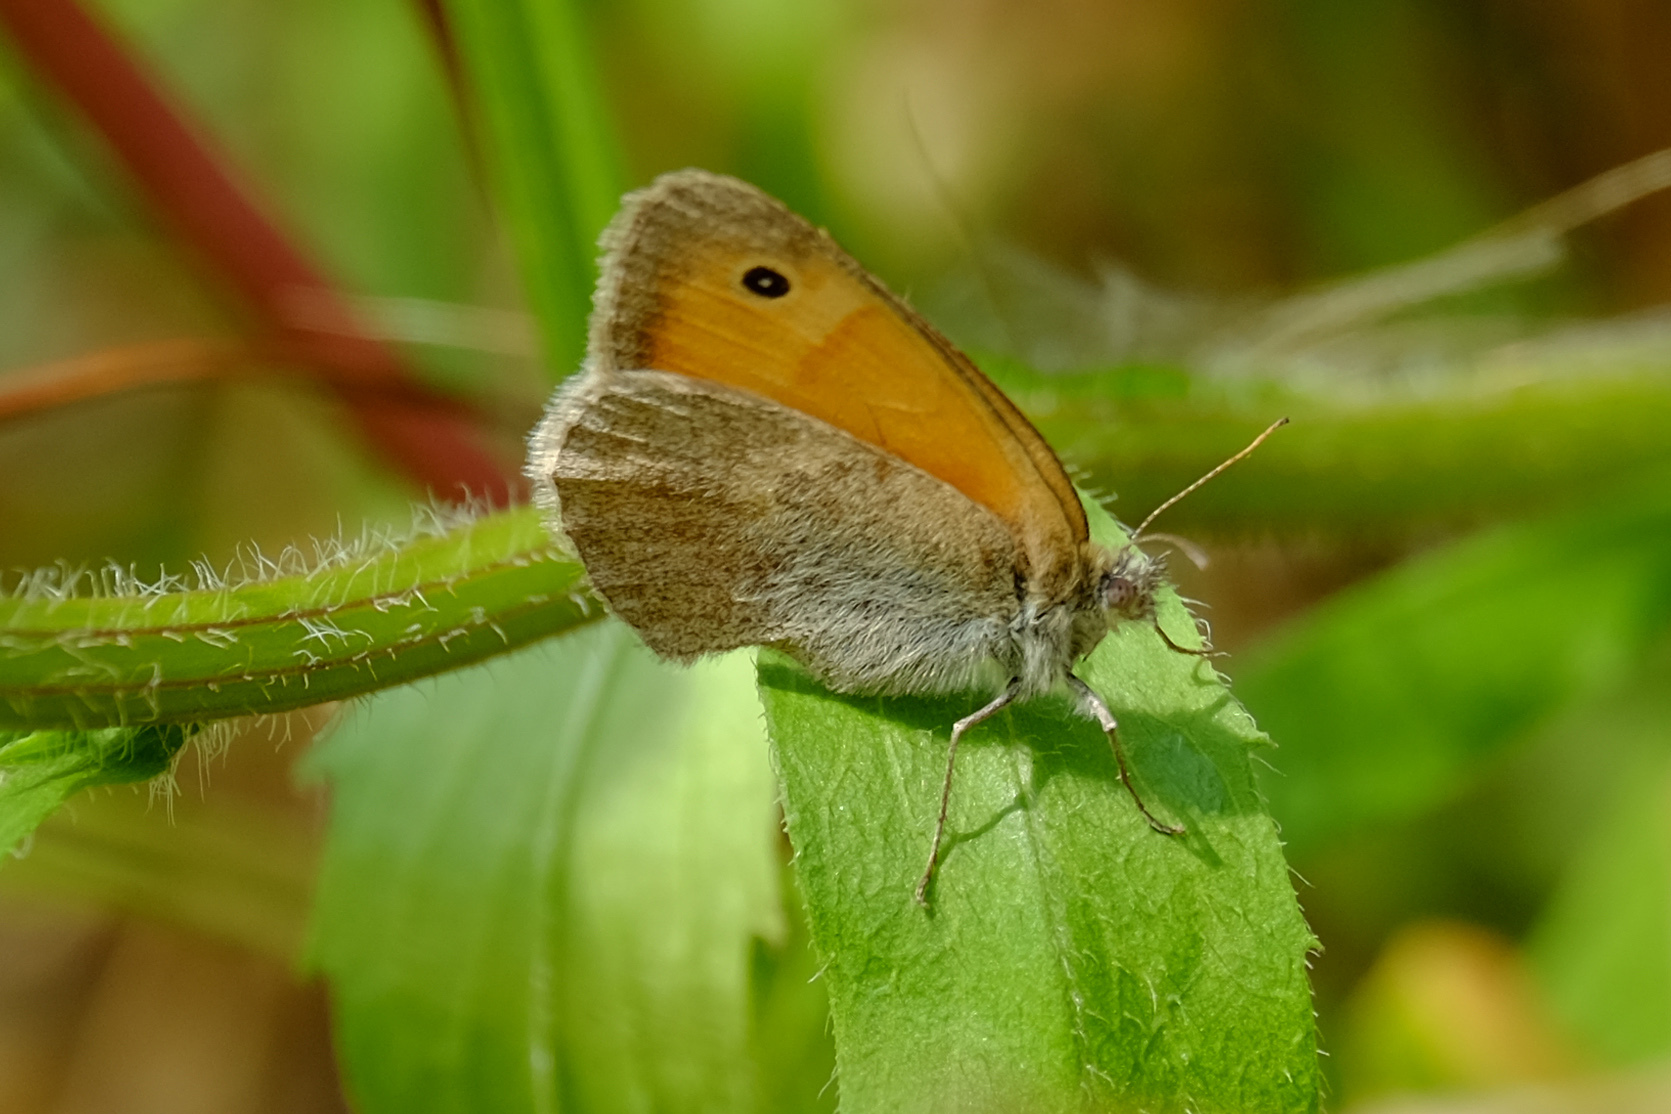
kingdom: Animalia
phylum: Arthropoda
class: Insecta
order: Lepidoptera
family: Nymphalidae
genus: Coenonympha
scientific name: Coenonympha pamphilus
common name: Small heath
